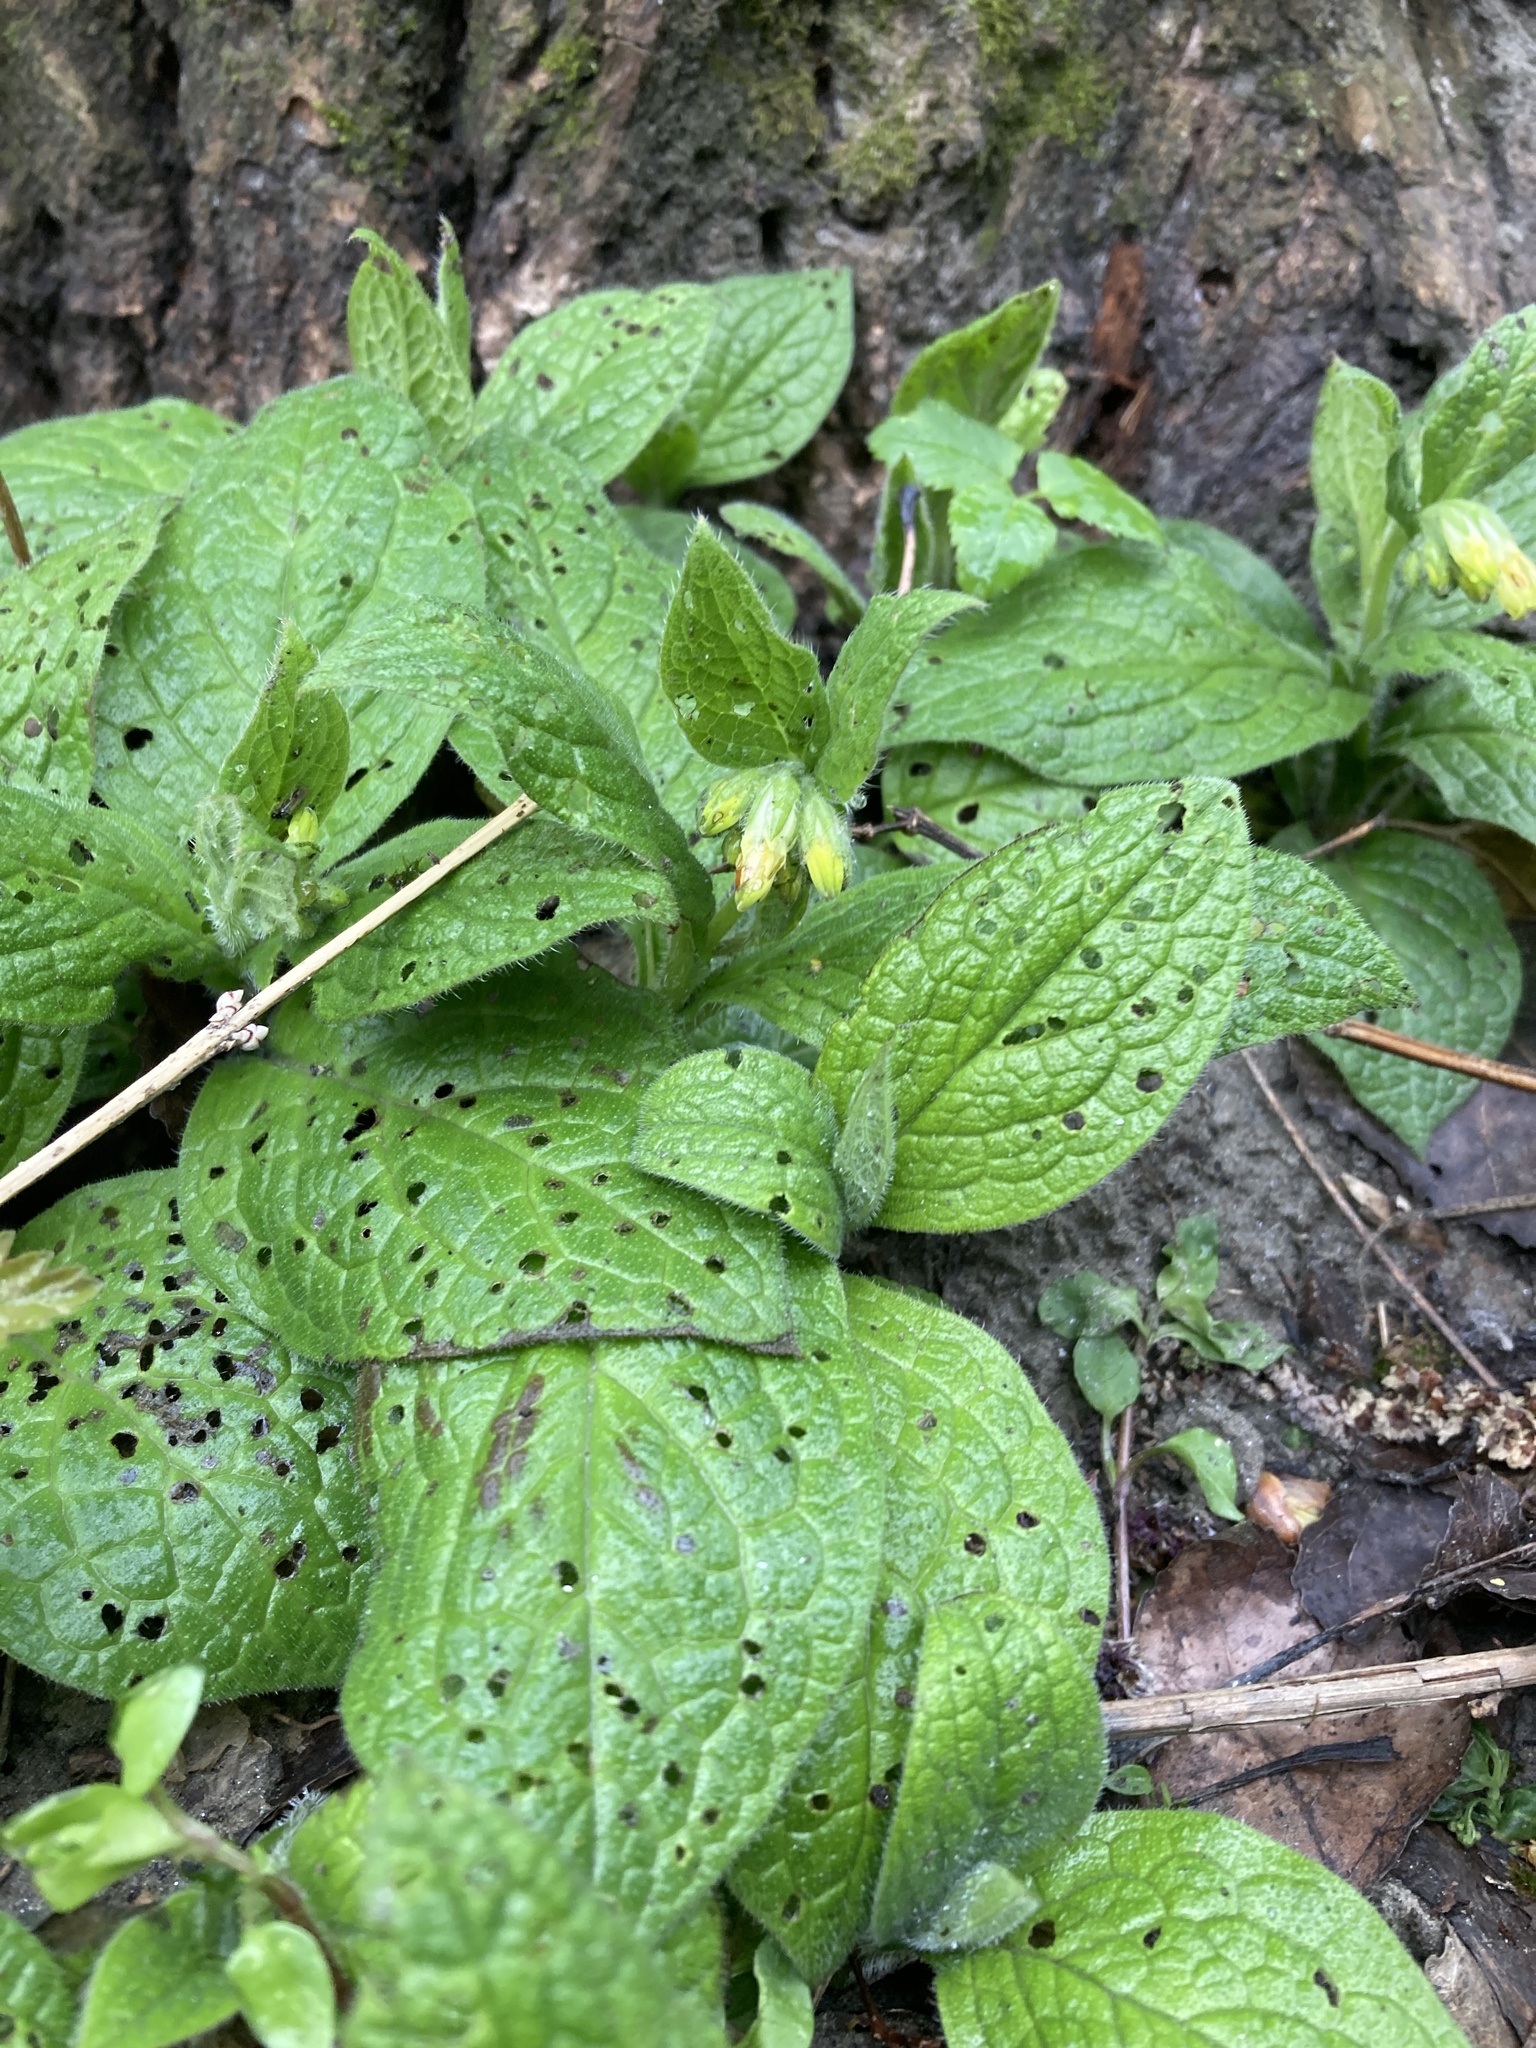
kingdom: Plantae
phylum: Tracheophyta
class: Magnoliopsida
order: Boraginales
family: Boraginaceae
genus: Symphytum
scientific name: Symphytum tuberosum
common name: Tuberous comfrey
